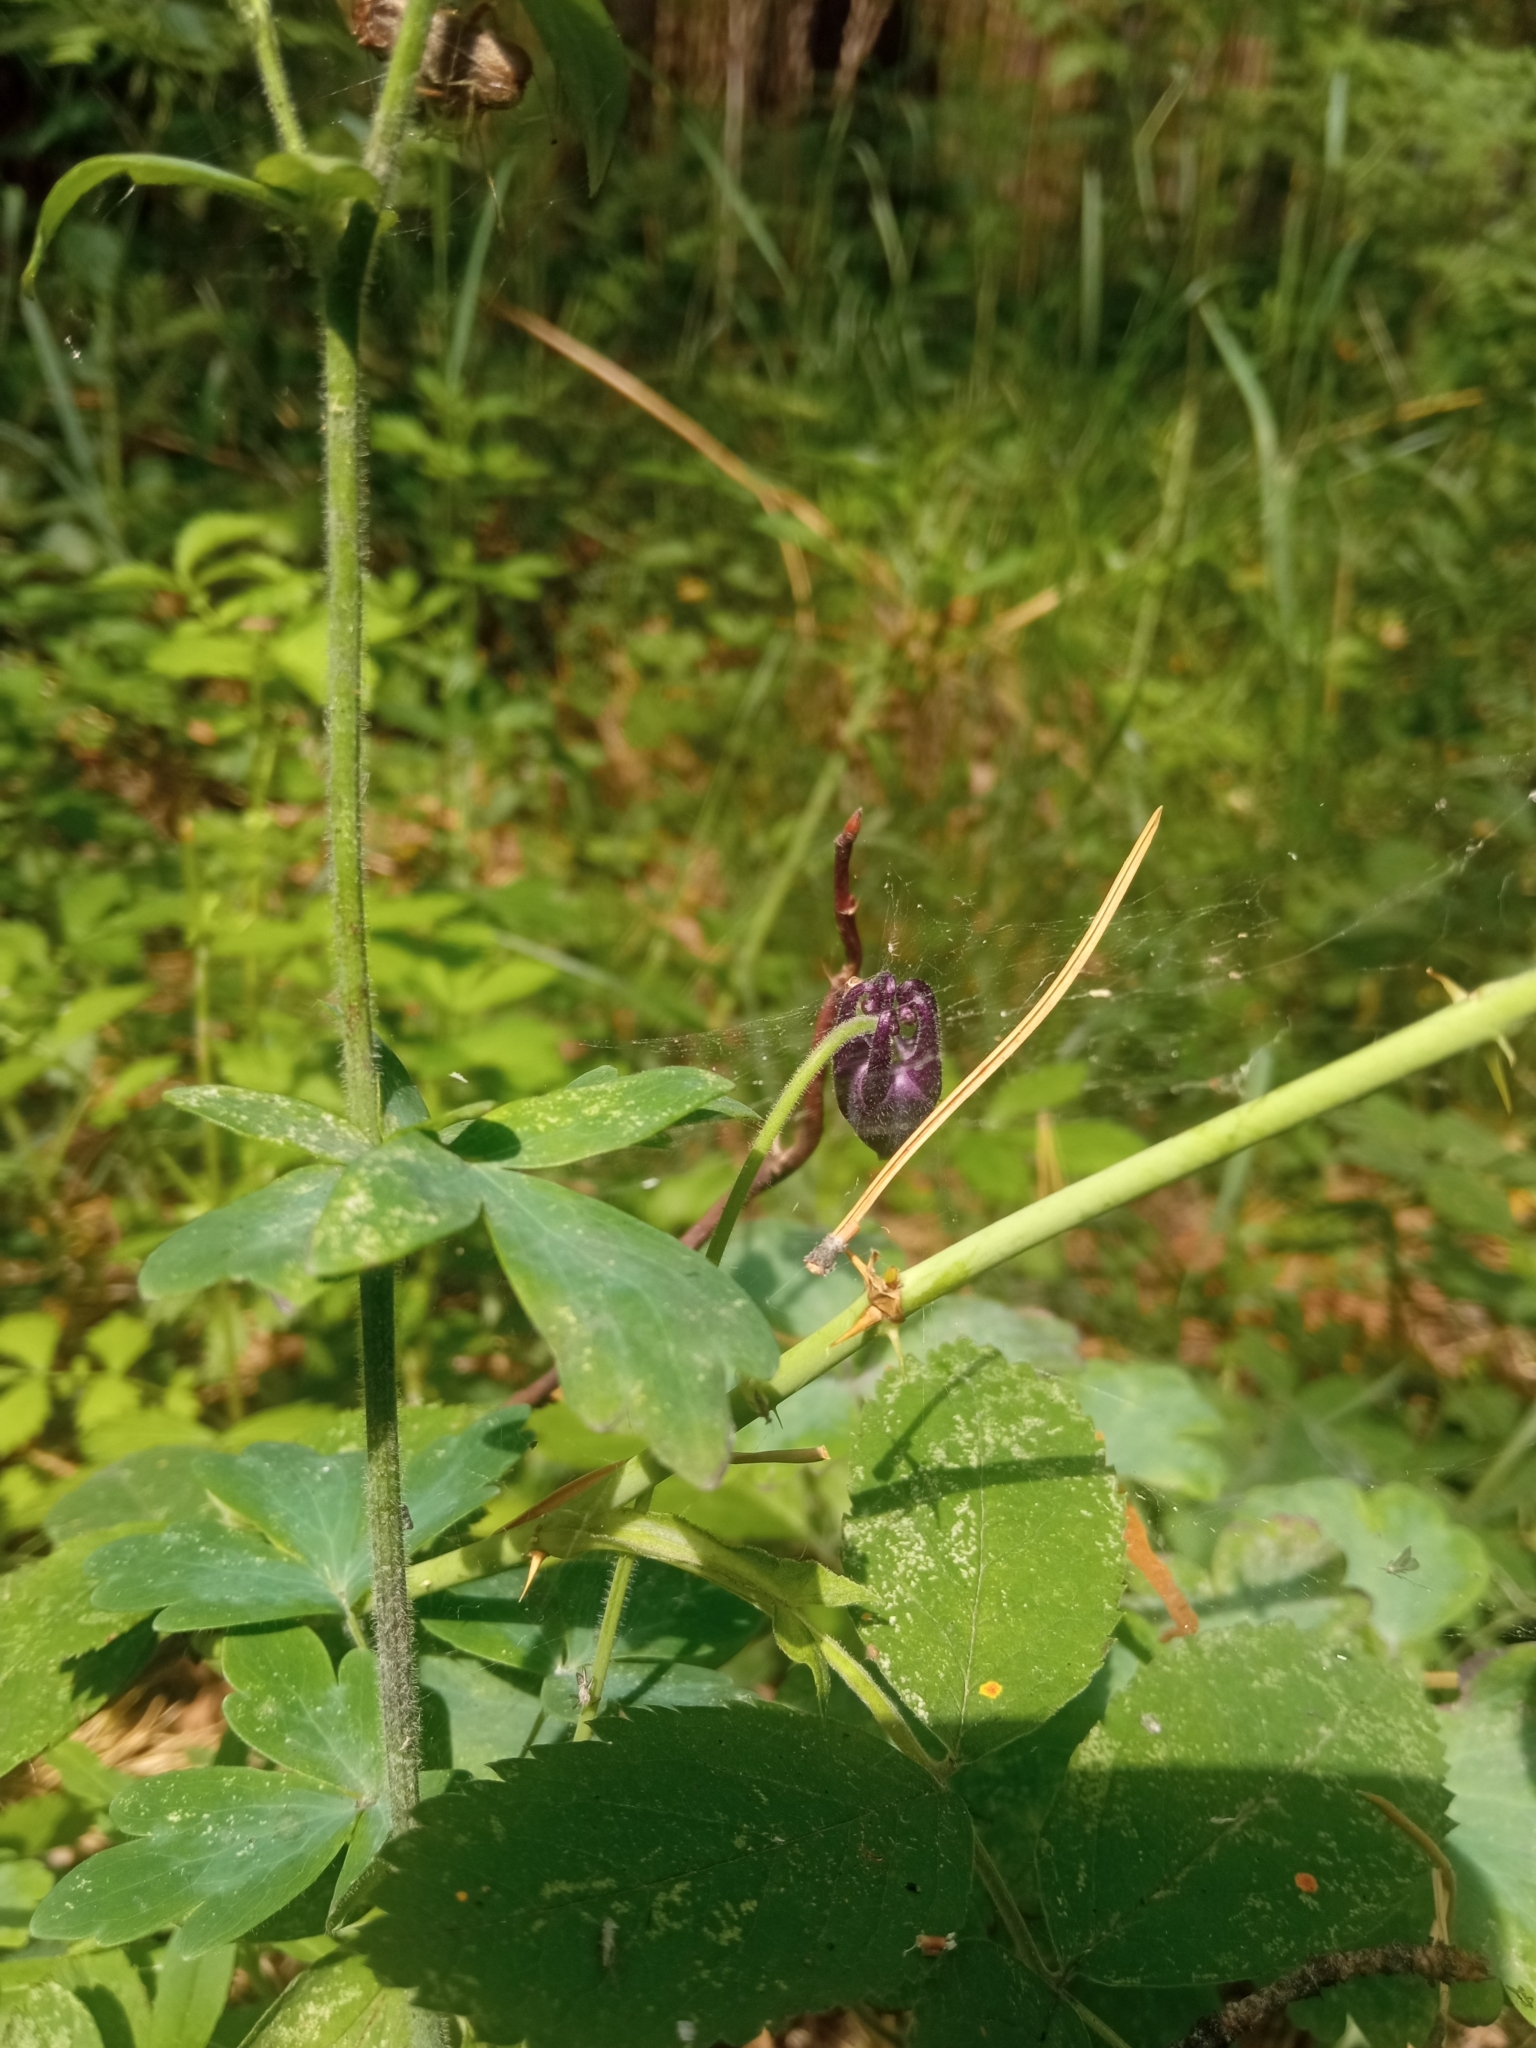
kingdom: Plantae
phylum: Tracheophyta
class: Magnoliopsida
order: Ranunculales
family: Ranunculaceae
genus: Aquilegia
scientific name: Aquilegia vulgaris
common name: Columbine
